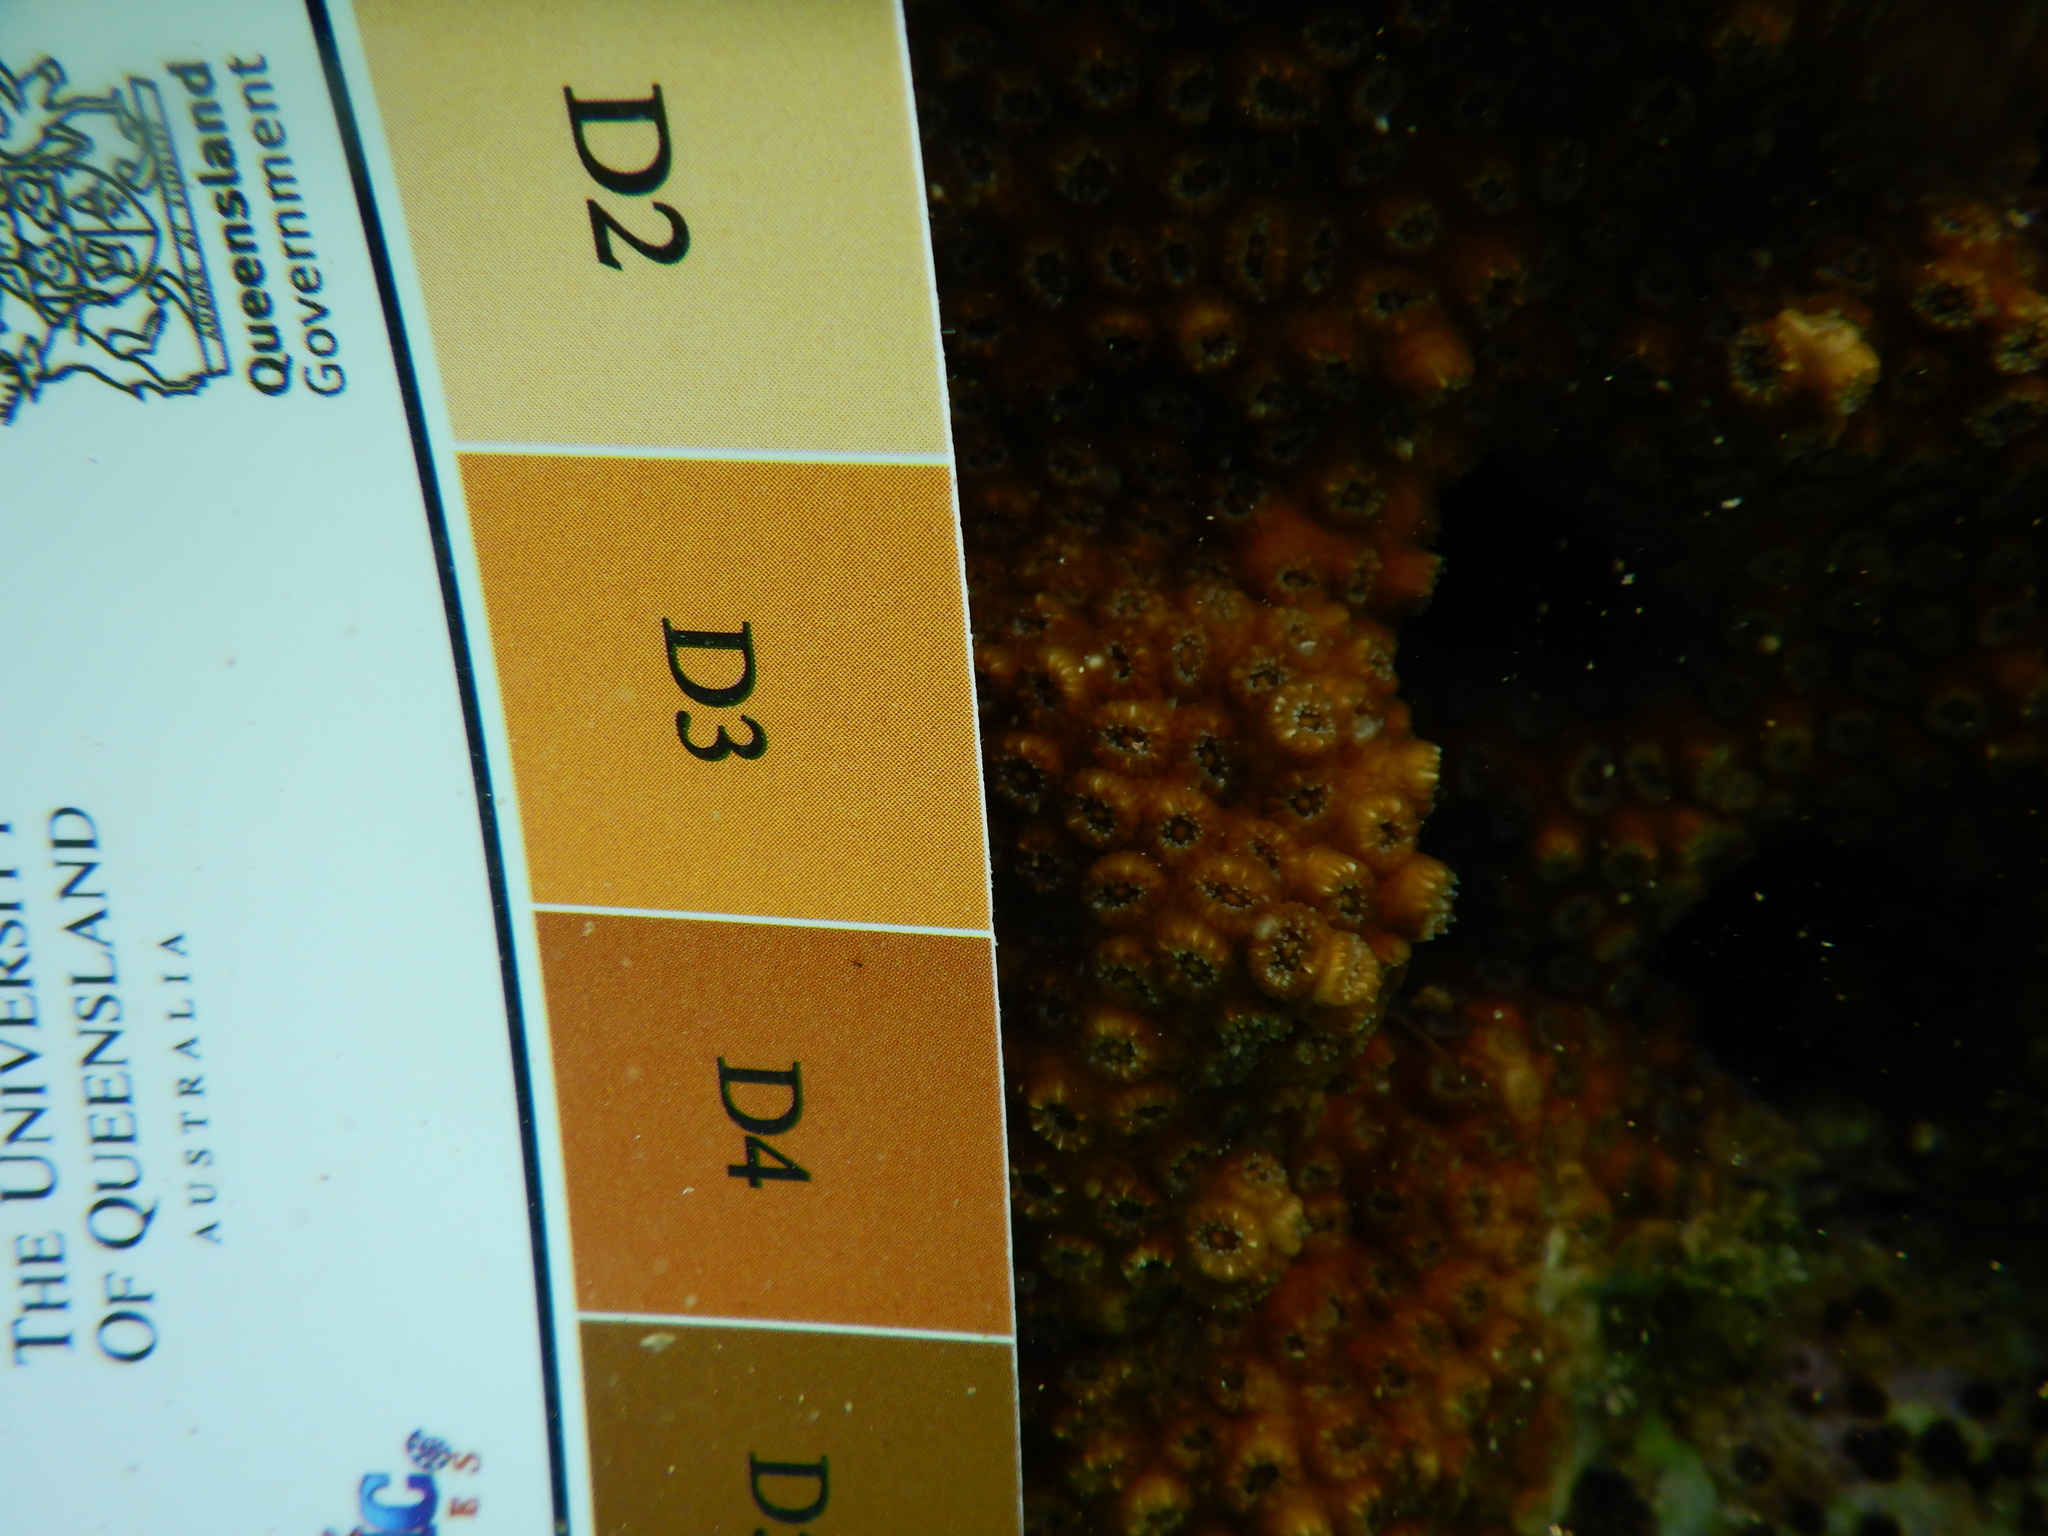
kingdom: Animalia
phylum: Cnidaria
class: Anthozoa
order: Scleractinia
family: Oculinidae
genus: Oculina
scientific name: Oculina patagonica
